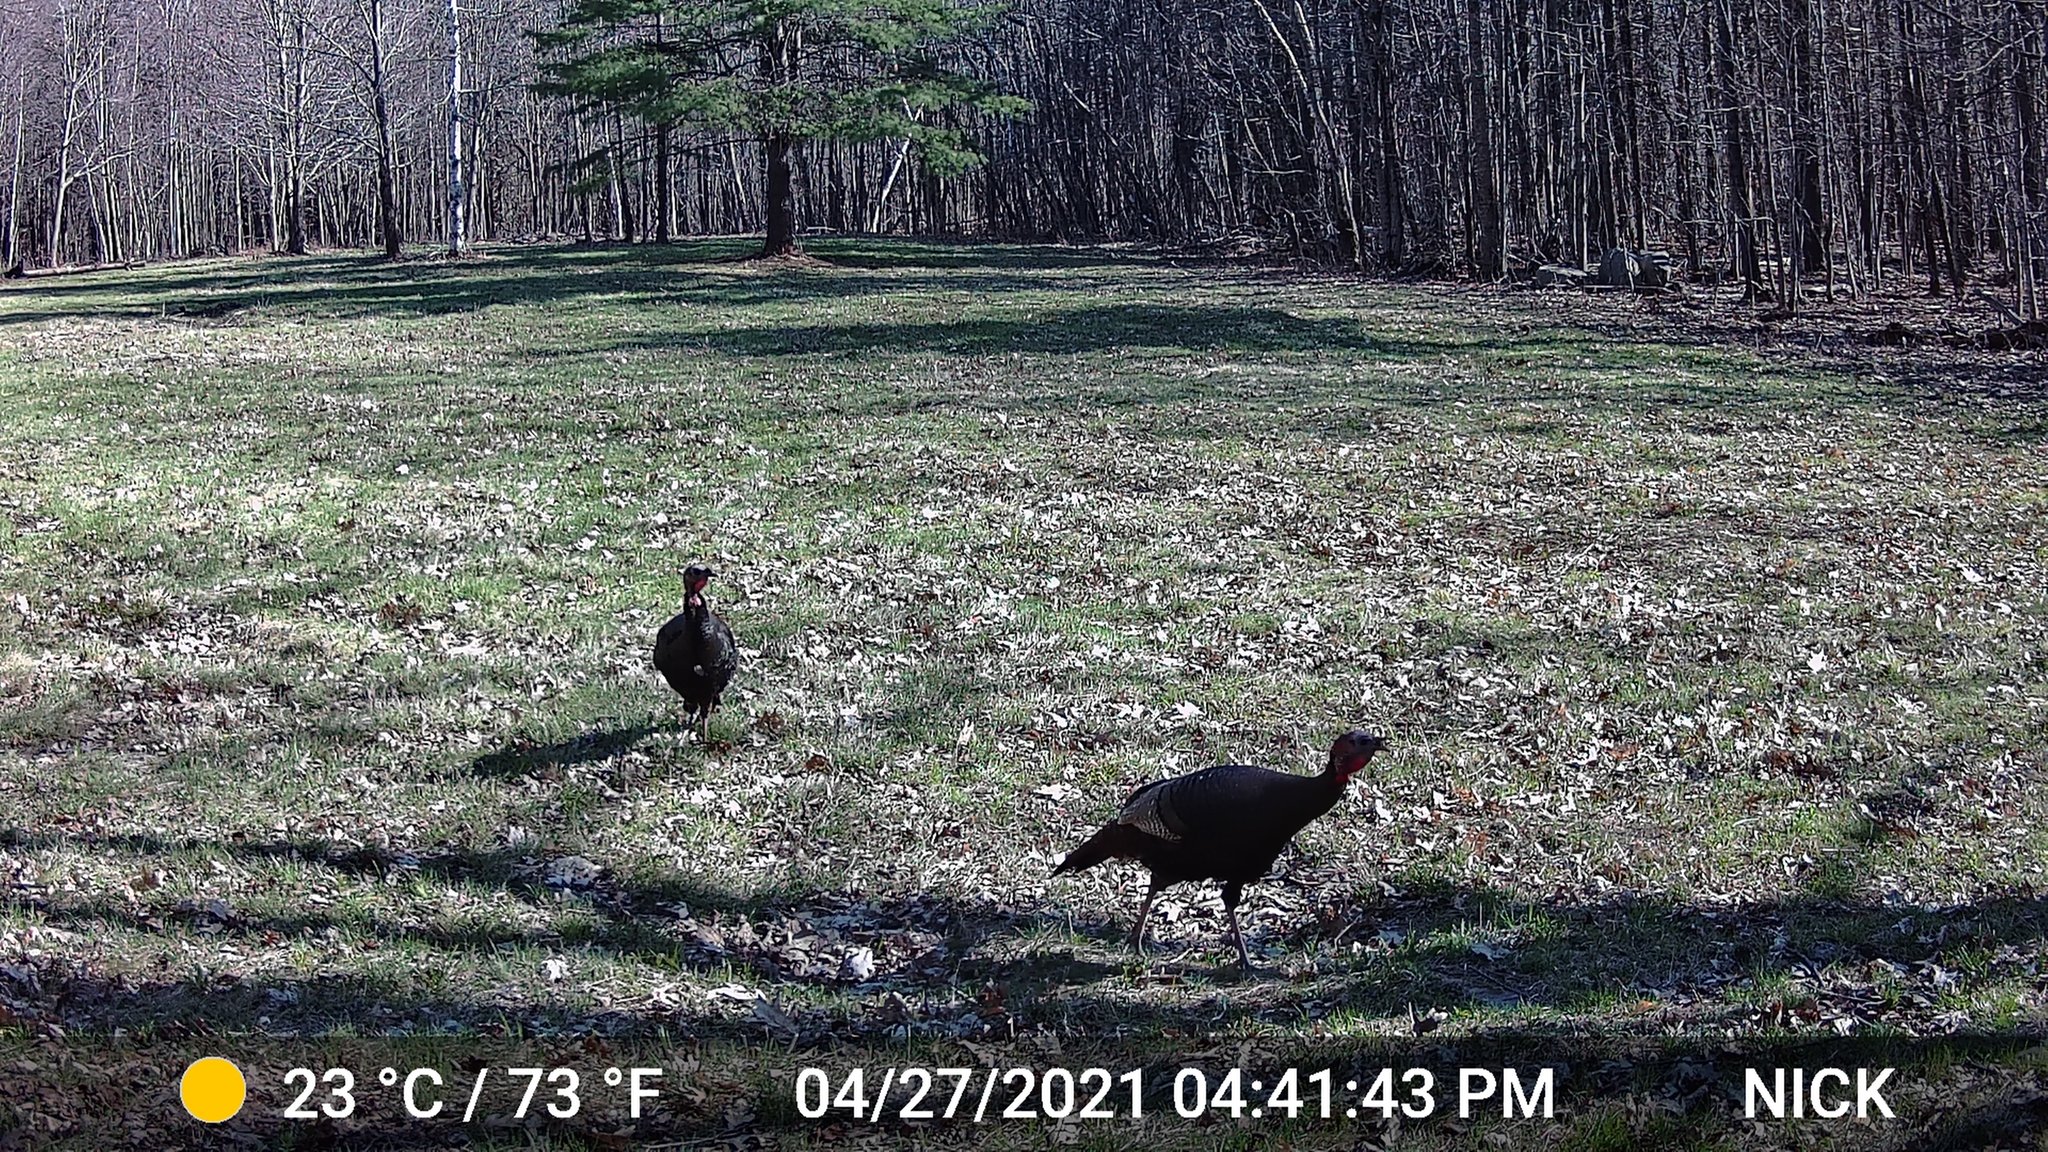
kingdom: Animalia
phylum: Chordata
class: Aves
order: Galliformes
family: Phasianidae
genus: Meleagris
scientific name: Meleagris gallopavo
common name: Wild turkey
